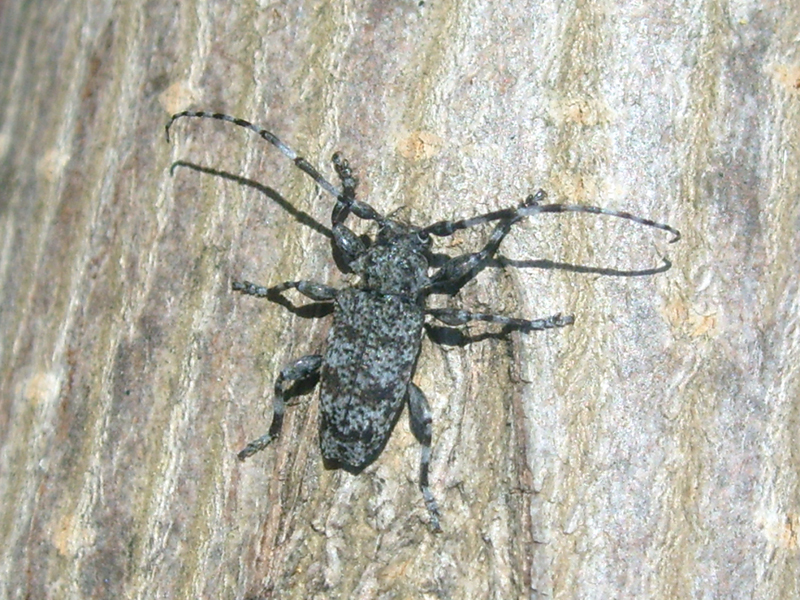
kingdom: Animalia
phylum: Arthropoda
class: Insecta
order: Coleoptera
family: Cerambycidae
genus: Aegomorphus
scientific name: Aegomorphus clavipes
